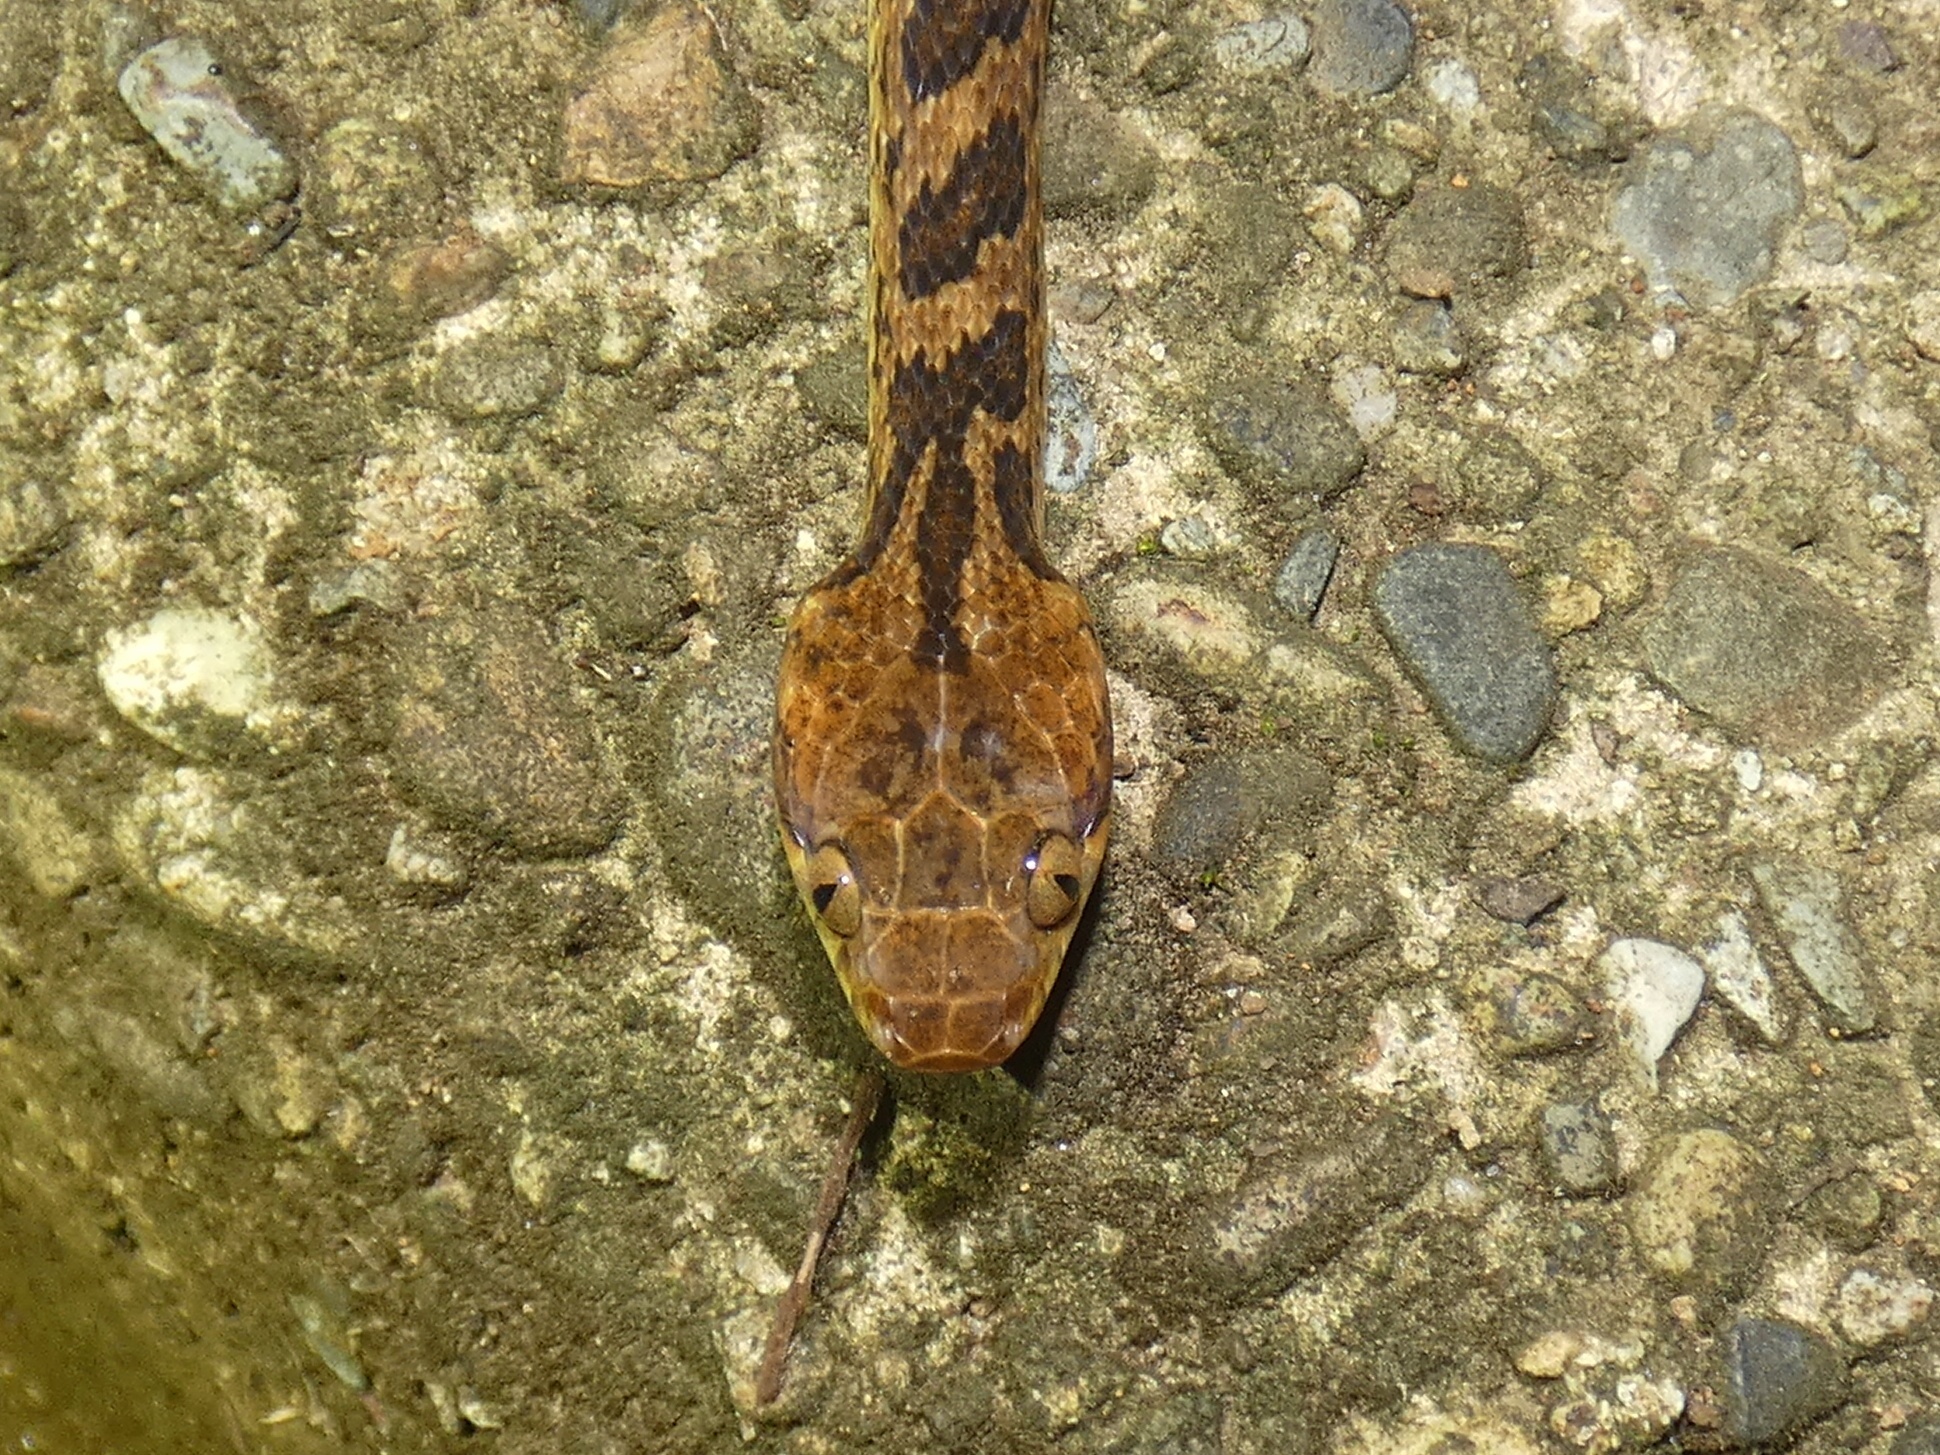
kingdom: Animalia
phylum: Chordata
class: Squamata
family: Colubridae
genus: Leptodeira
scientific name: Leptodeira ornata
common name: Northern cat-eyed snake
